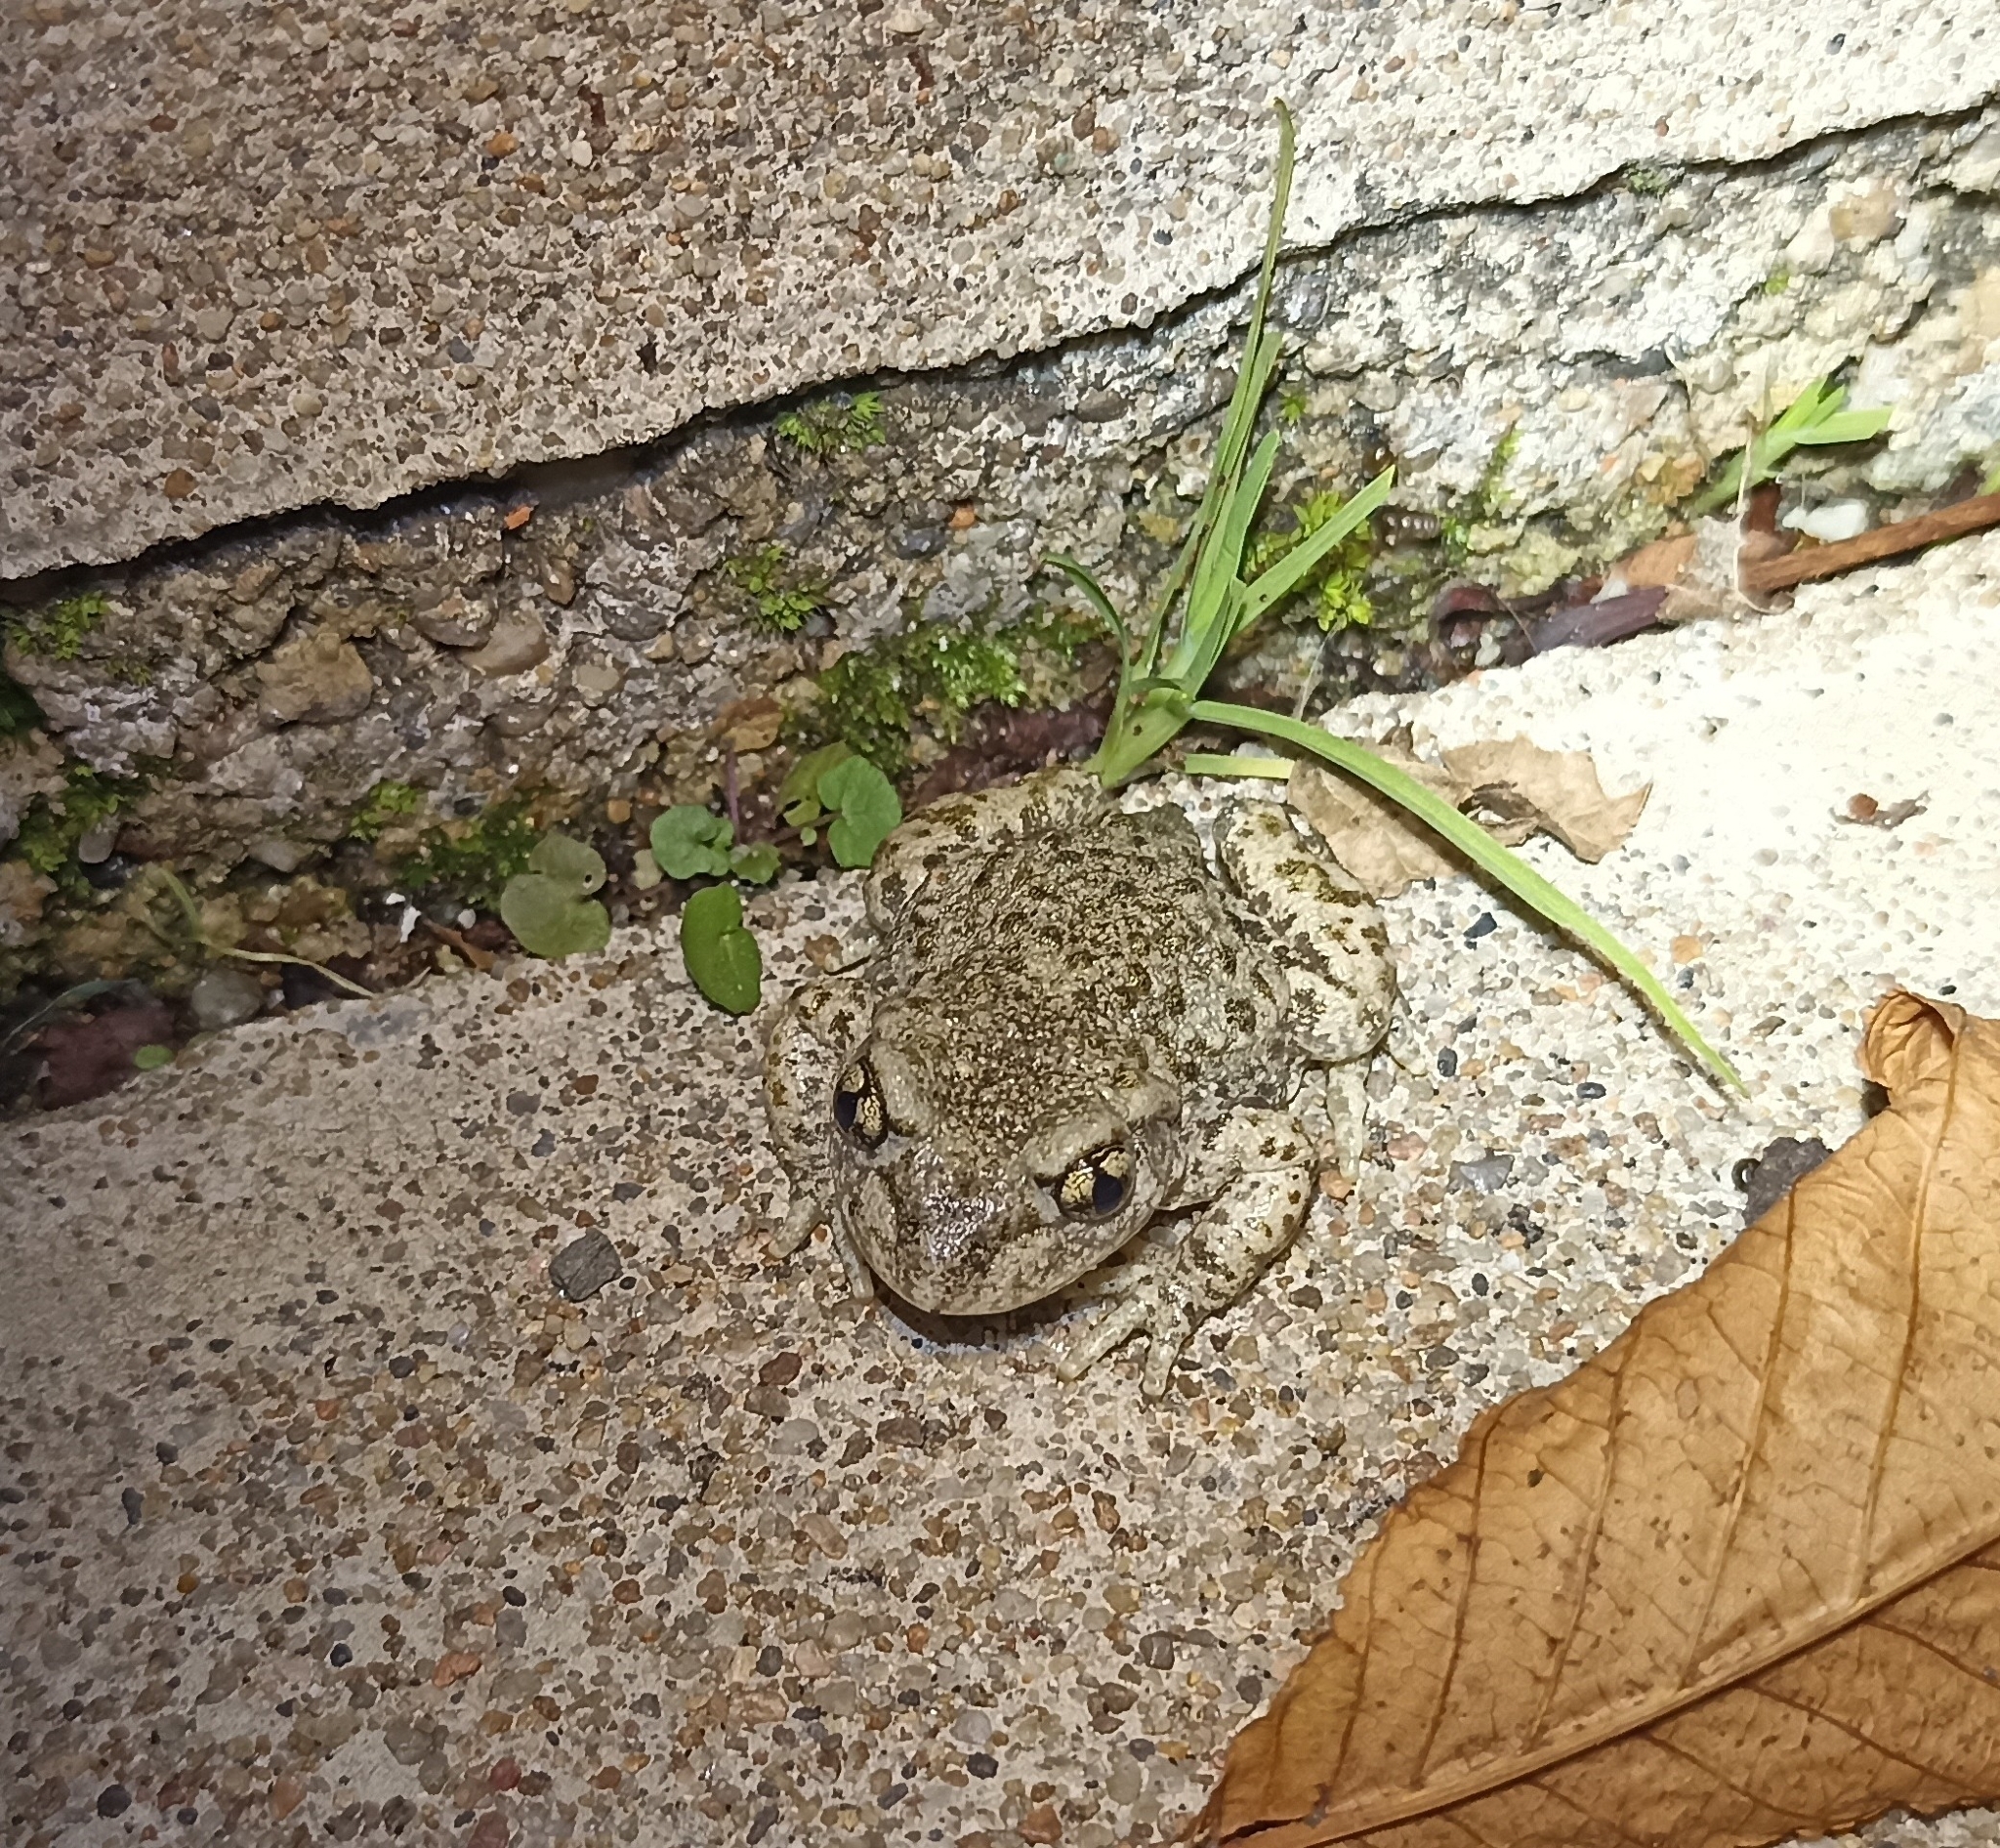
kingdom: Animalia
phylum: Chordata
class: Amphibia
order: Anura
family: Alytidae
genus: Alytes
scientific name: Alytes obstetricans
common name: Midwife toad
